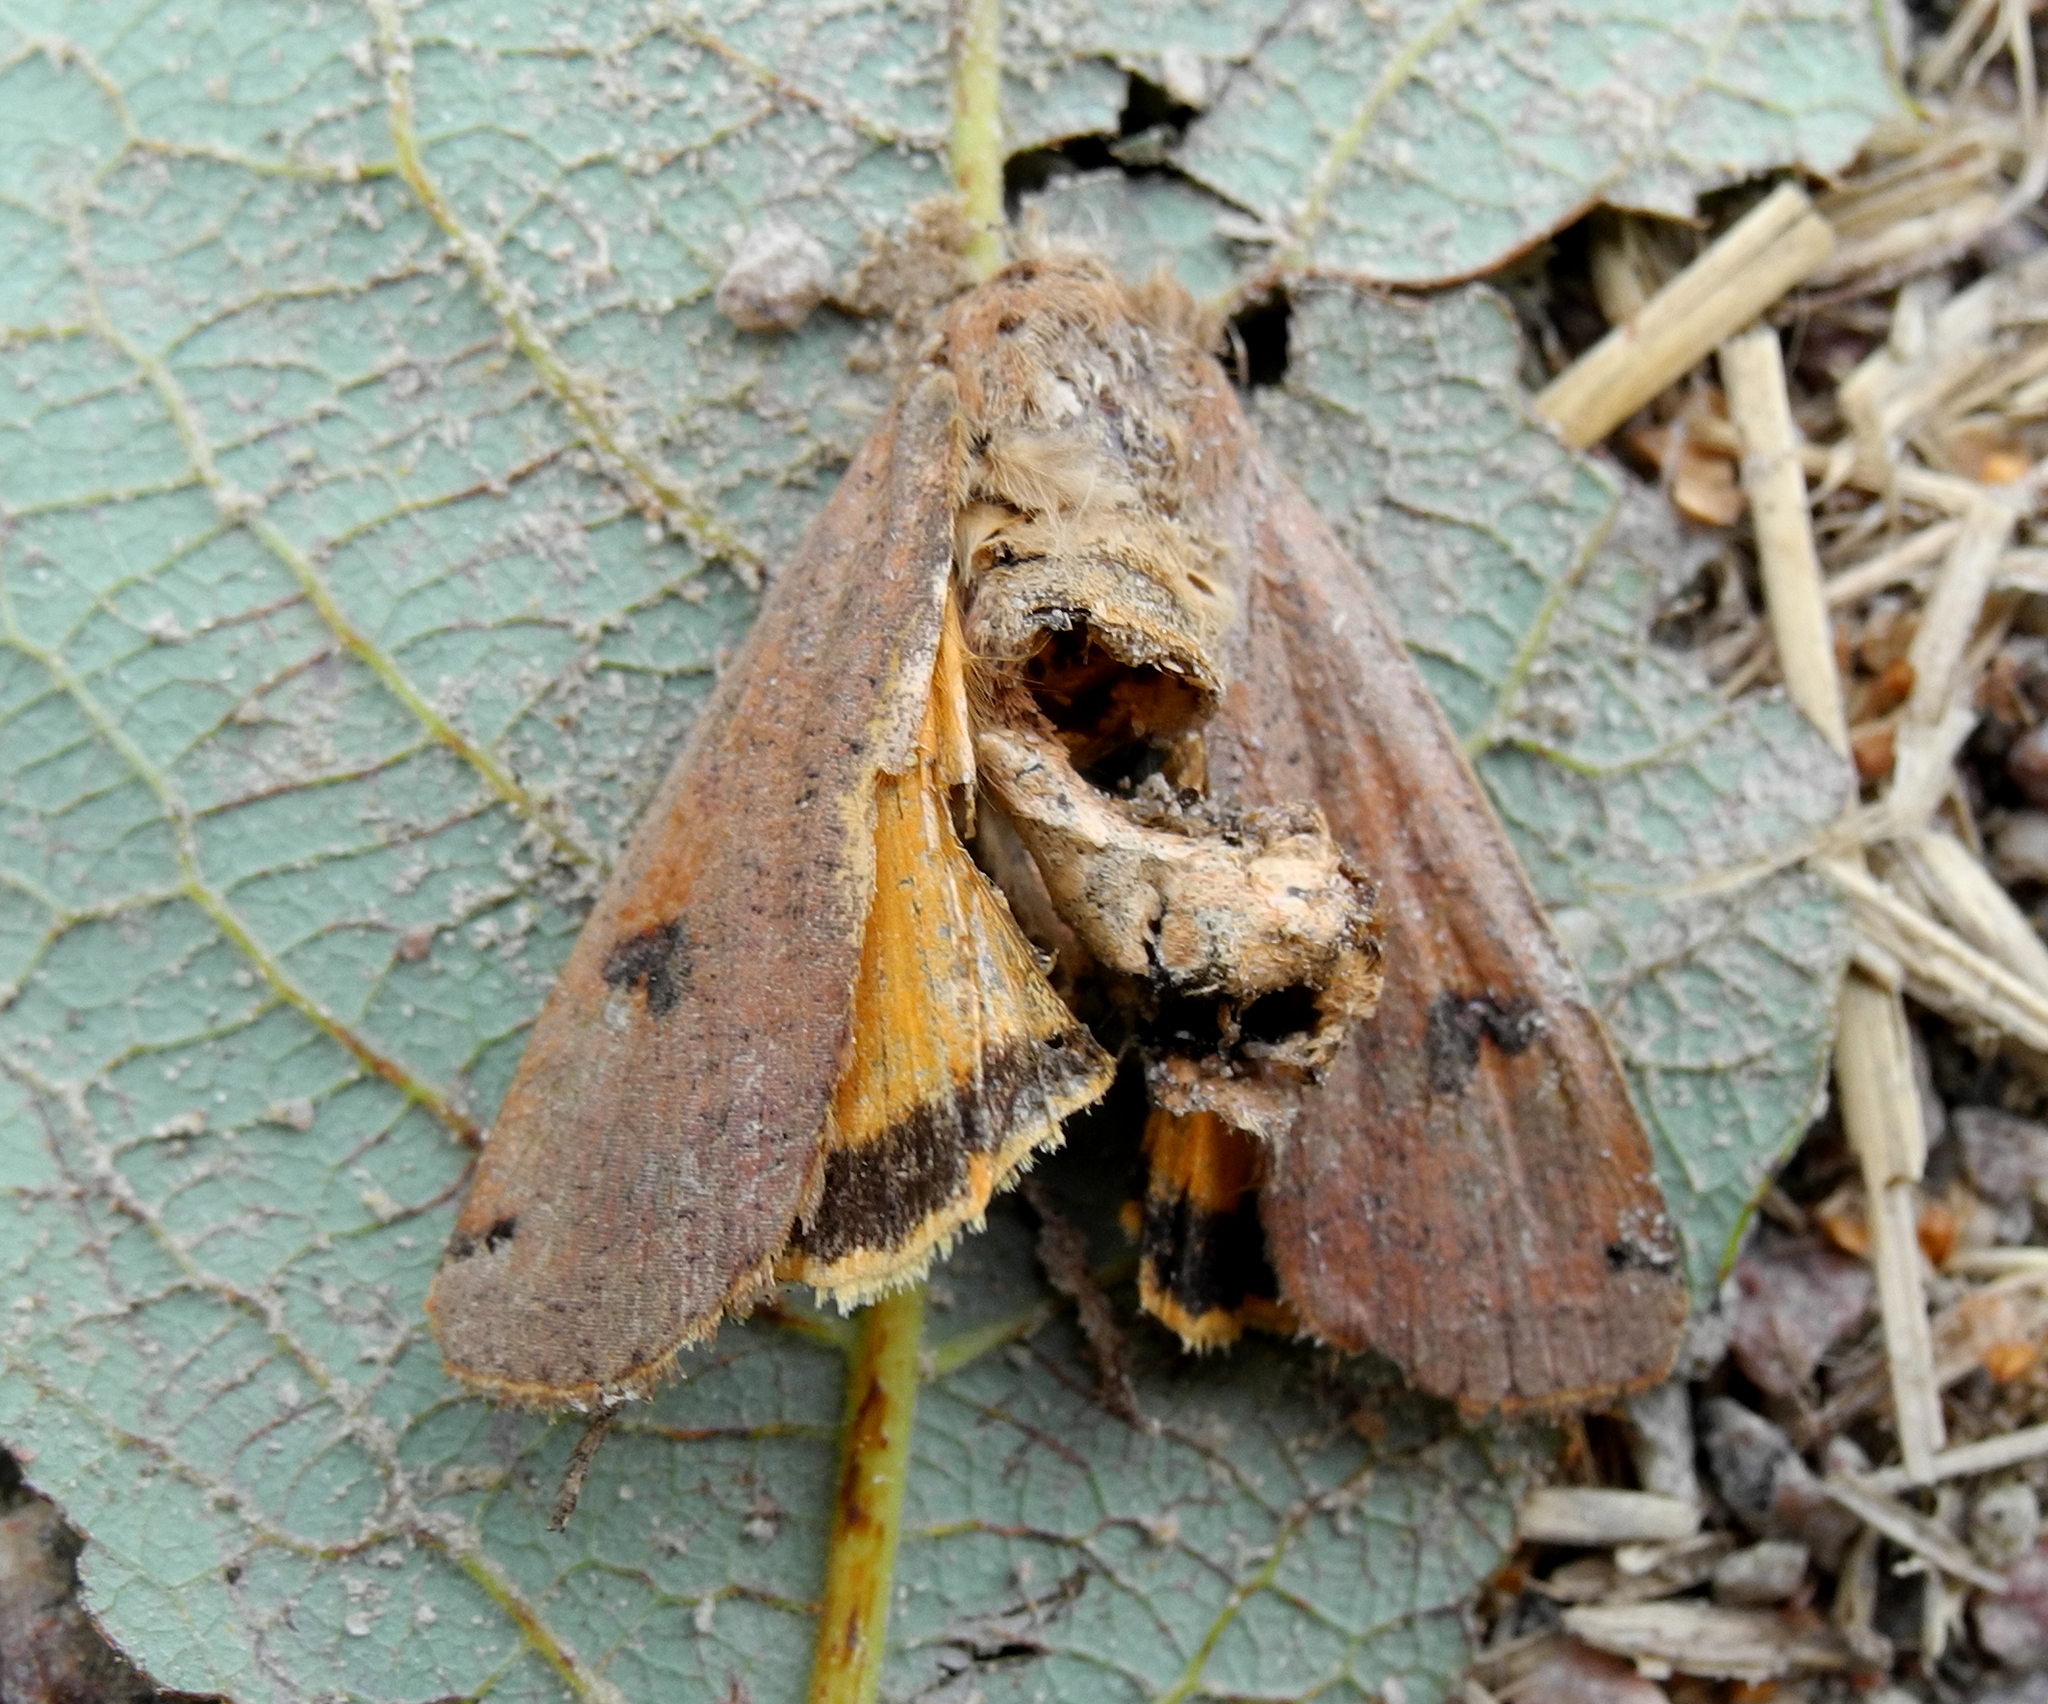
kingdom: Animalia
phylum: Arthropoda
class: Insecta
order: Lepidoptera
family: Noctuidae
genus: Noctua
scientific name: Noctua pronuba
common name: Large yellow underwing
